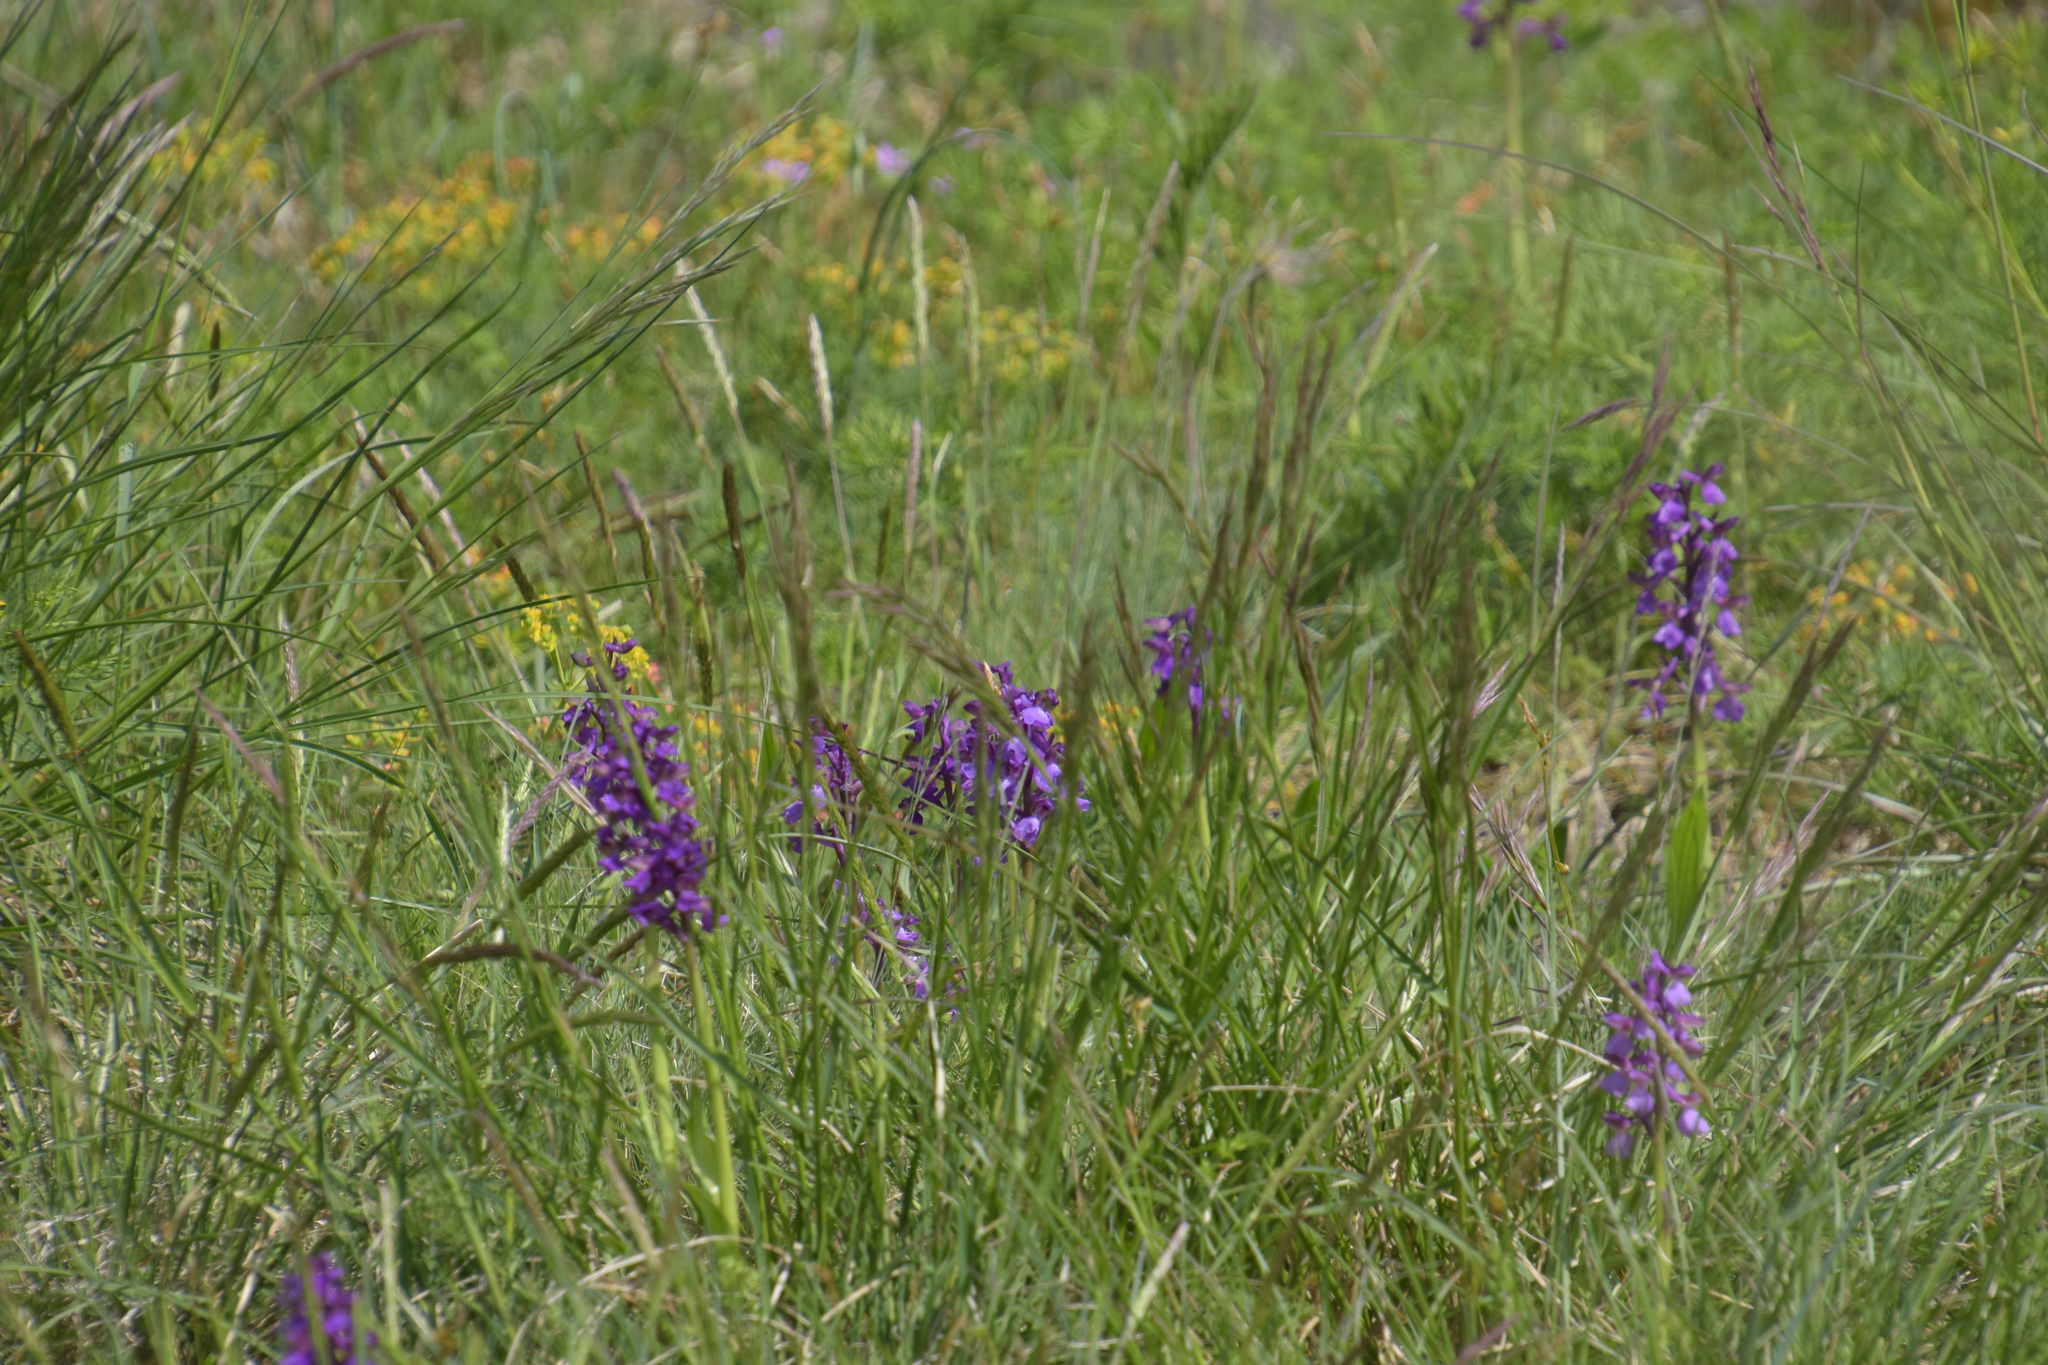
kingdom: Plantae
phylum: Tracheophyta
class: Liliopsida
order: Asparagales
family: Orchidaceae
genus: Anacamptis
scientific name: Anacamptis morio
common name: Green-winged orchid
